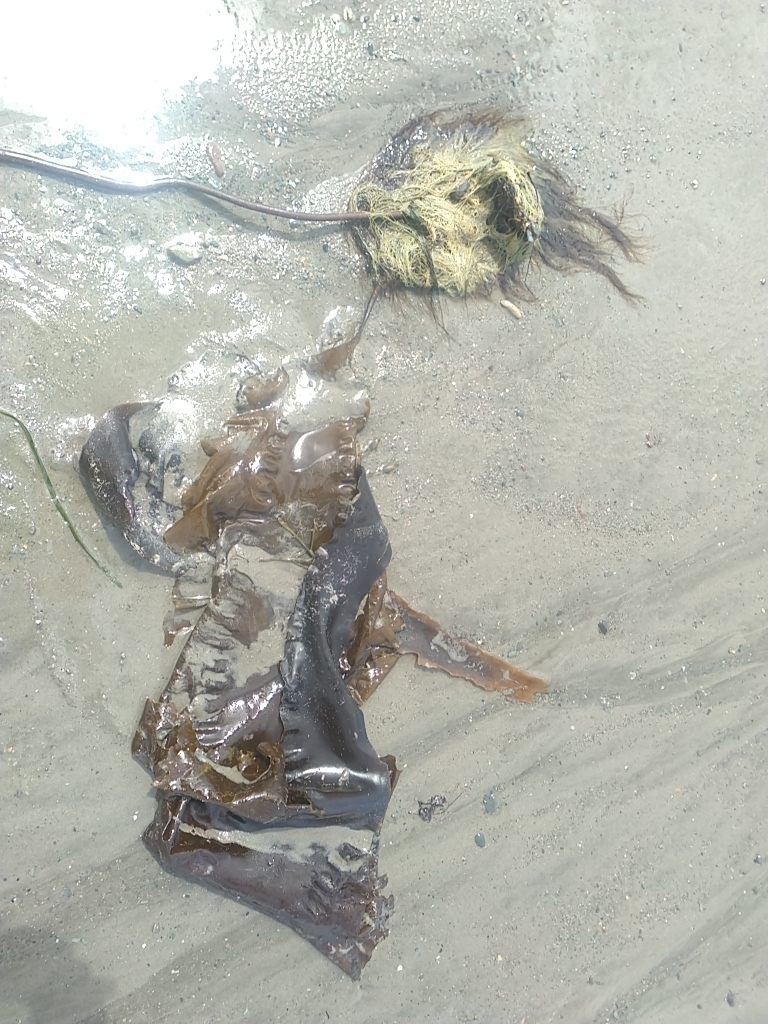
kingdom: Chromista
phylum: Ochrophyta
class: Phaeophyceae
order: Laminariales
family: Laminariaceae
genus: Saccharina
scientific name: Saccharina latissima
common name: Poor man's weather glass
